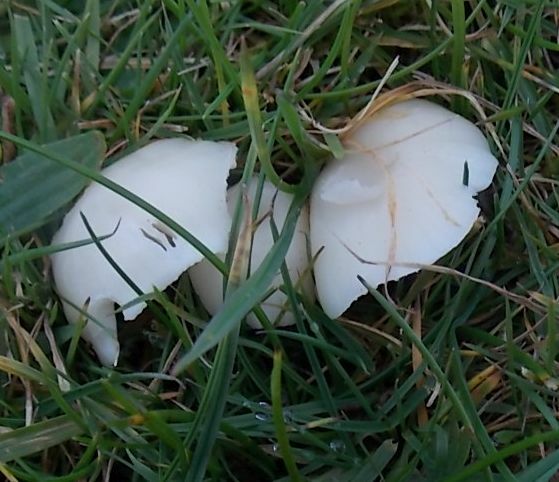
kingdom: Fungi
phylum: Basidiomycota
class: Agaricomycetes
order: Agaricales
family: Hygrophoraceae
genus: Cuphophyllus
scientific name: Cuphophyllus virgineus
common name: Snowy waxcap
